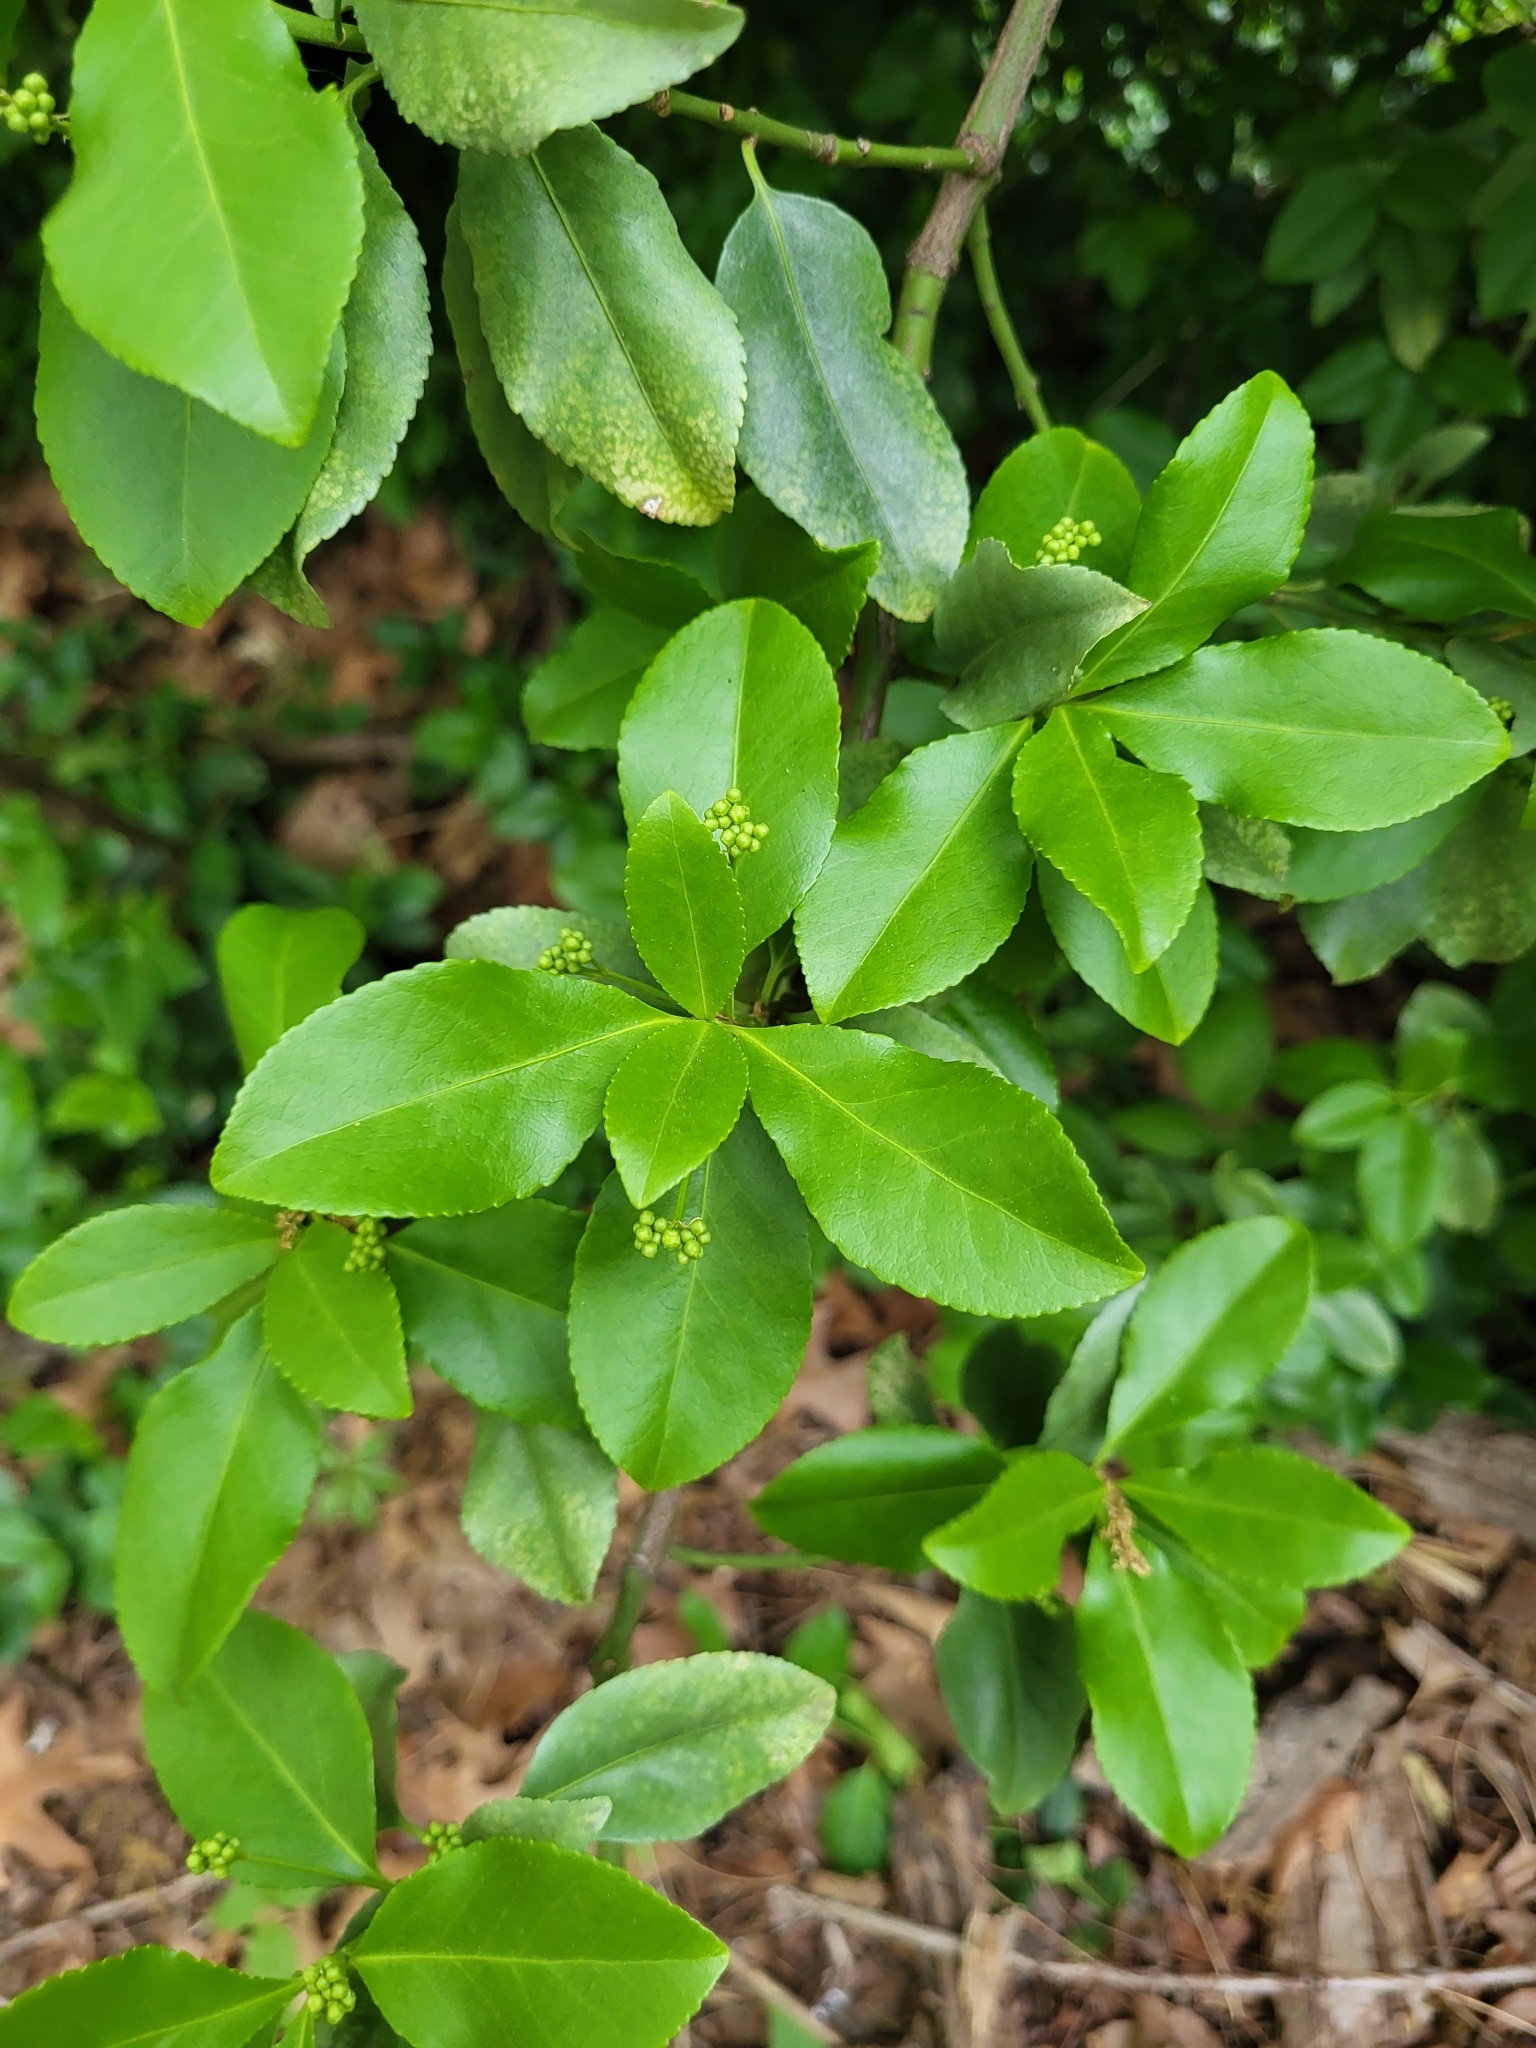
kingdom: Plantae
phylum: Tracheophyta
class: Magnoliopsida
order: Celastrales
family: Celastraceae
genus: Euonymus
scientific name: Euonymus japonicus
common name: Japanese spindletree
